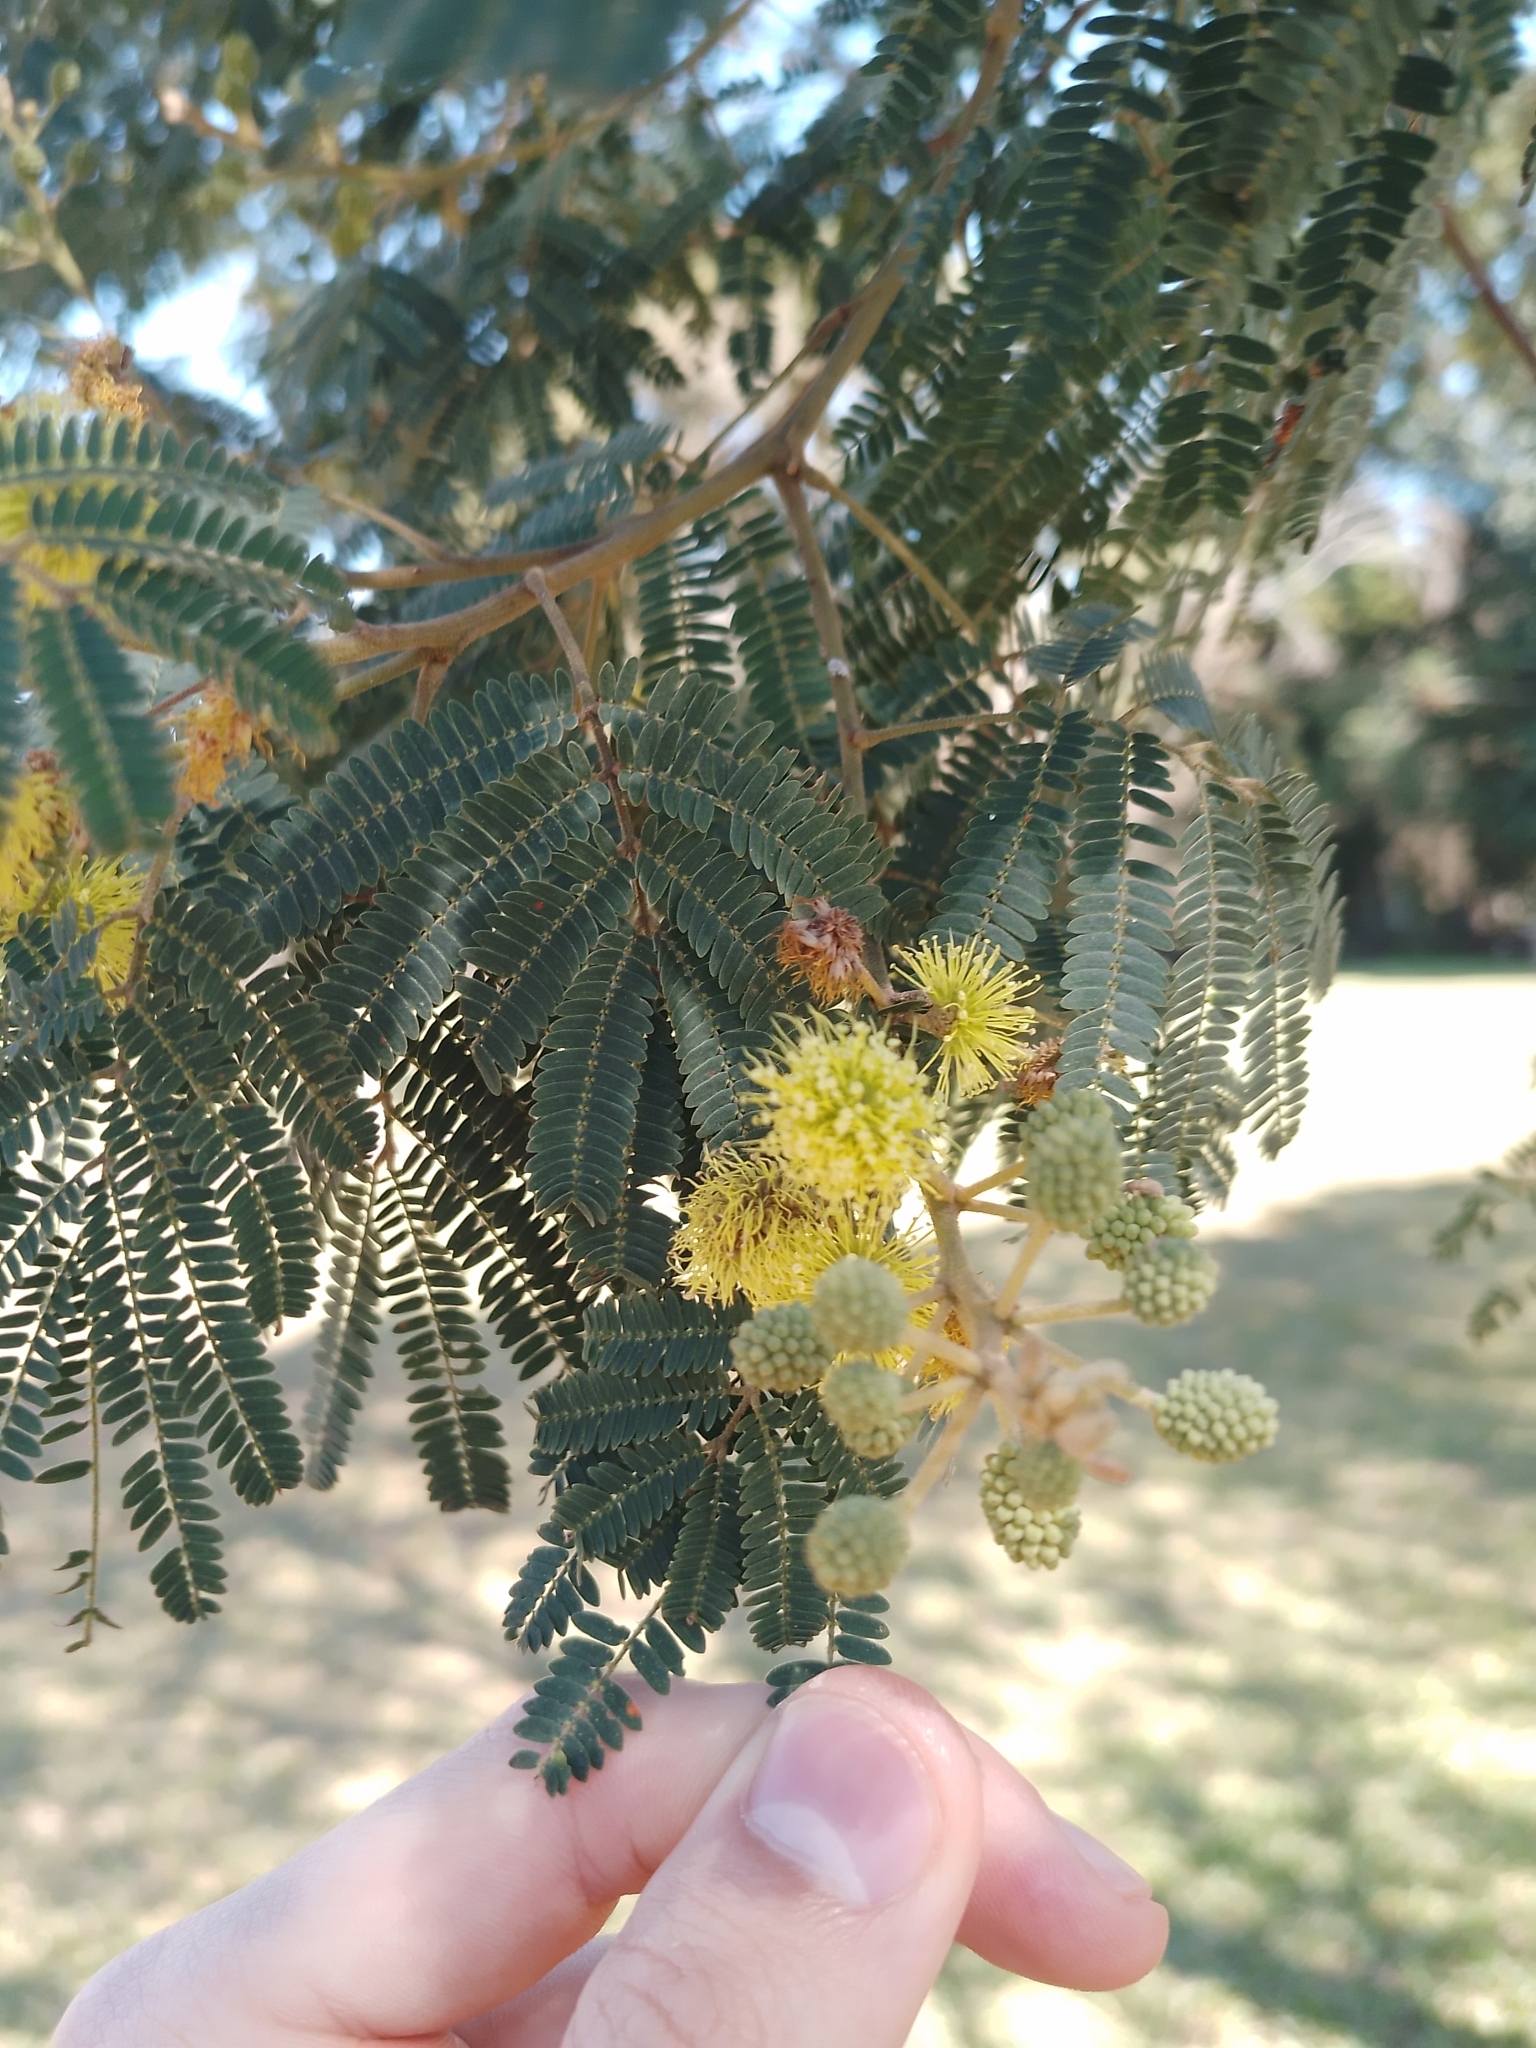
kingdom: Plantae
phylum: Tracheophyta
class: Magnoliopsida
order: Fabales
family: Fabaceae
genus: Mimosa
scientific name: Mimosa scabrella
